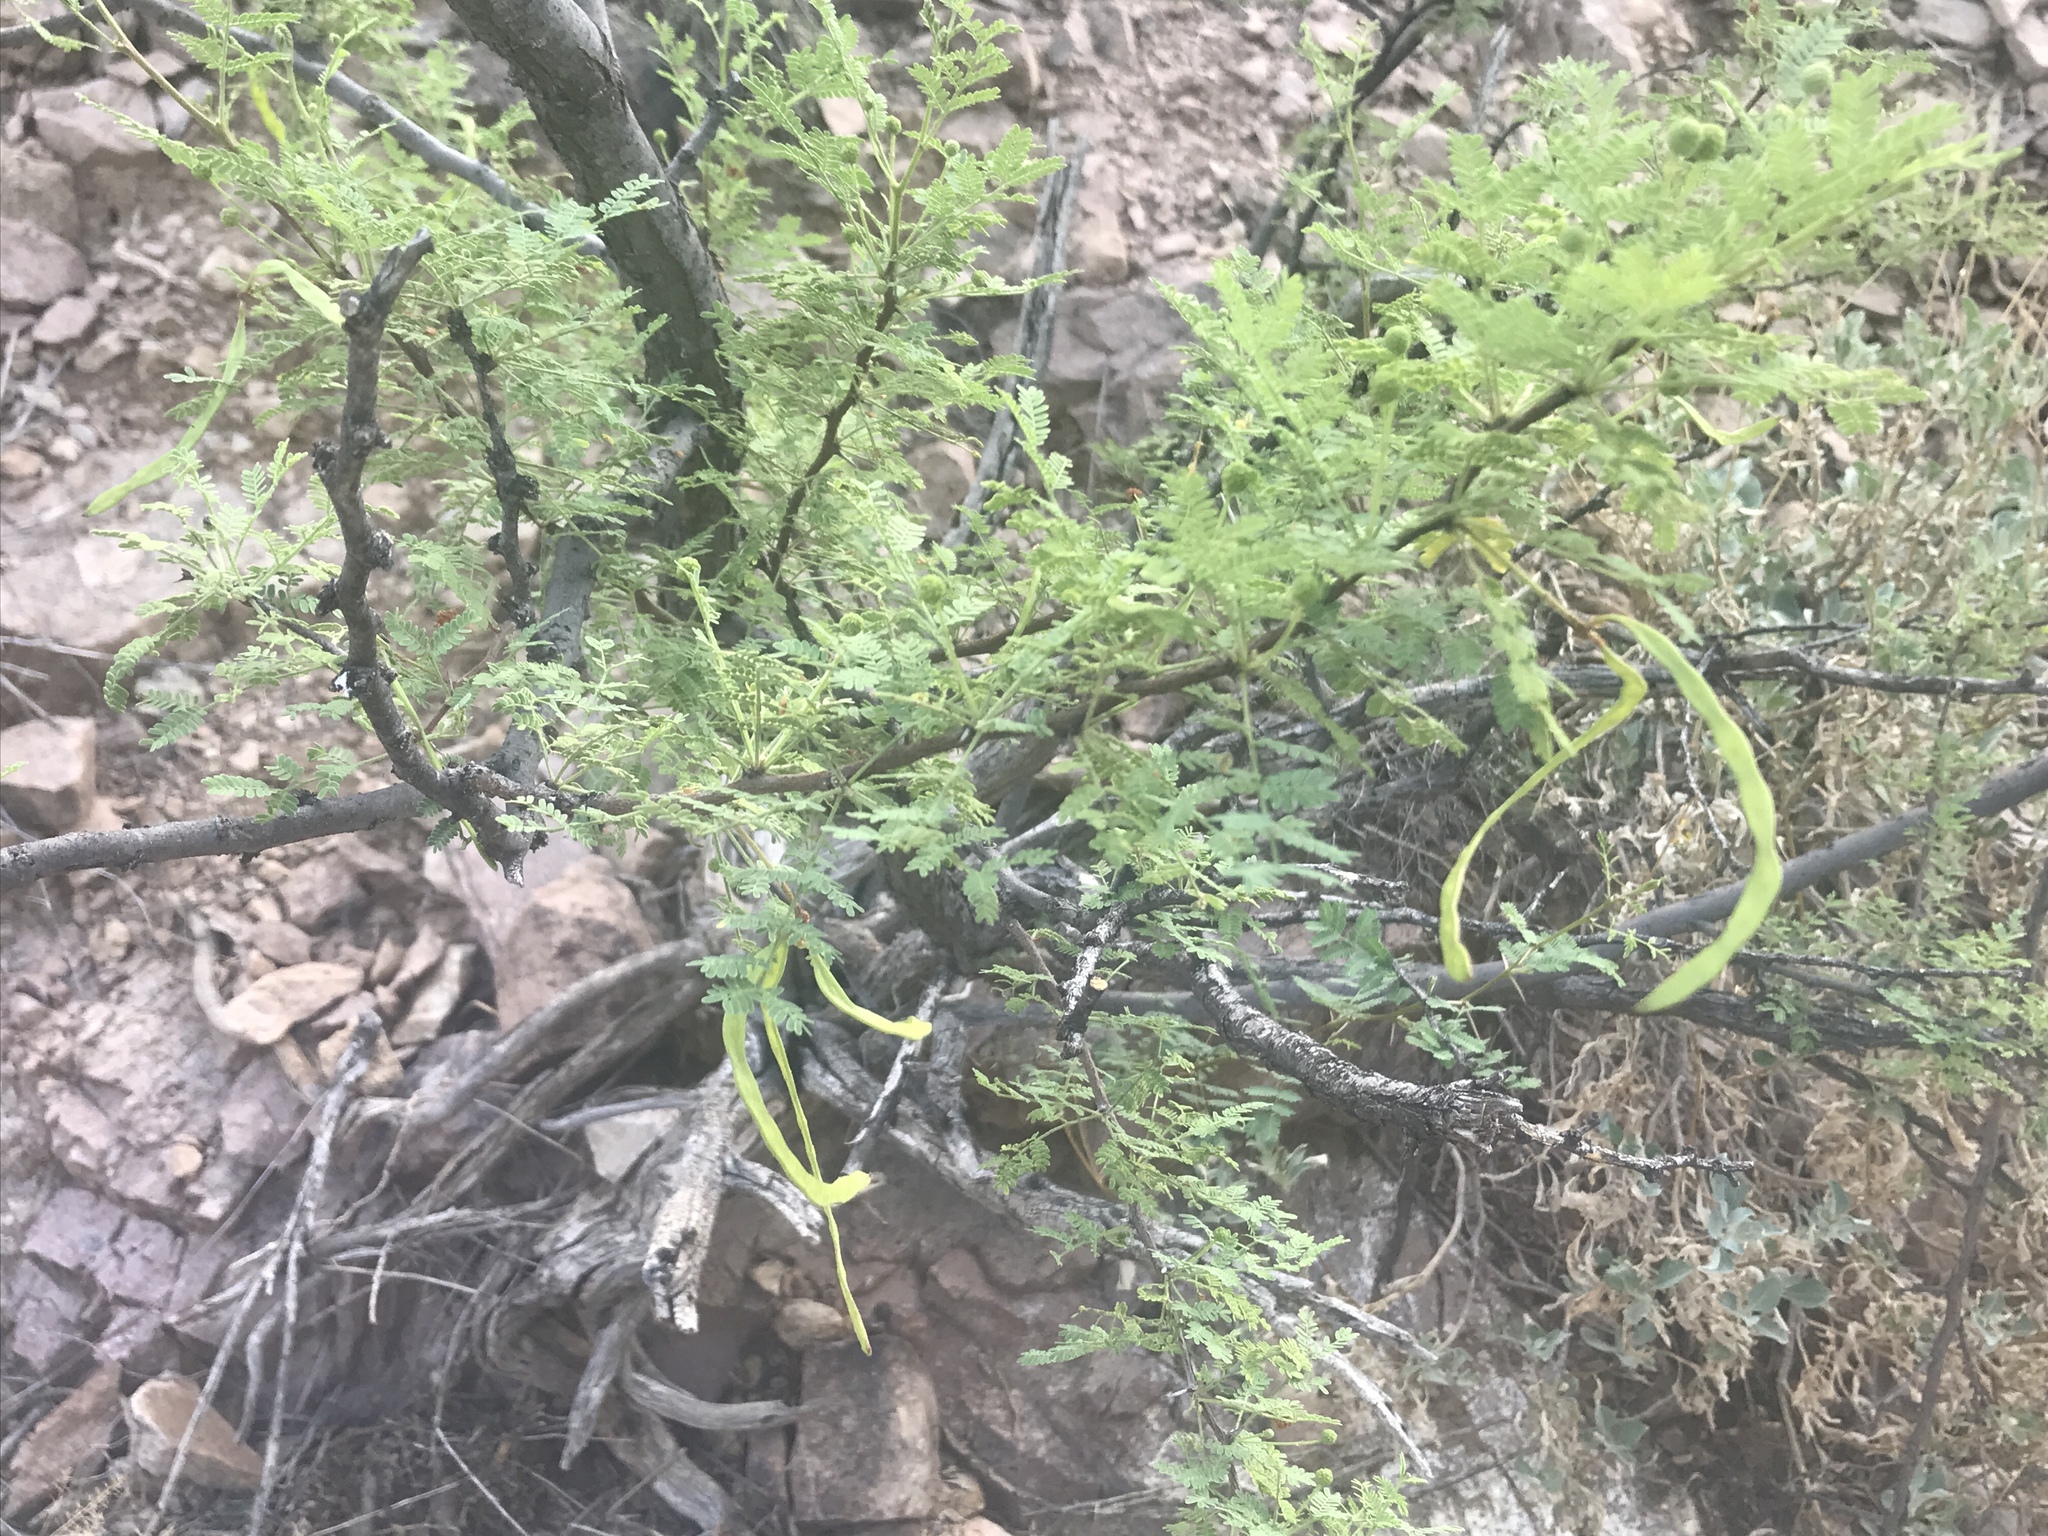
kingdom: Plantae
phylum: Tracheophyta
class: Magnoliopsida
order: Fabales
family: Fabaceae
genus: Vachellia
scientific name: Vachellia constricta
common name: Mescat acacia
